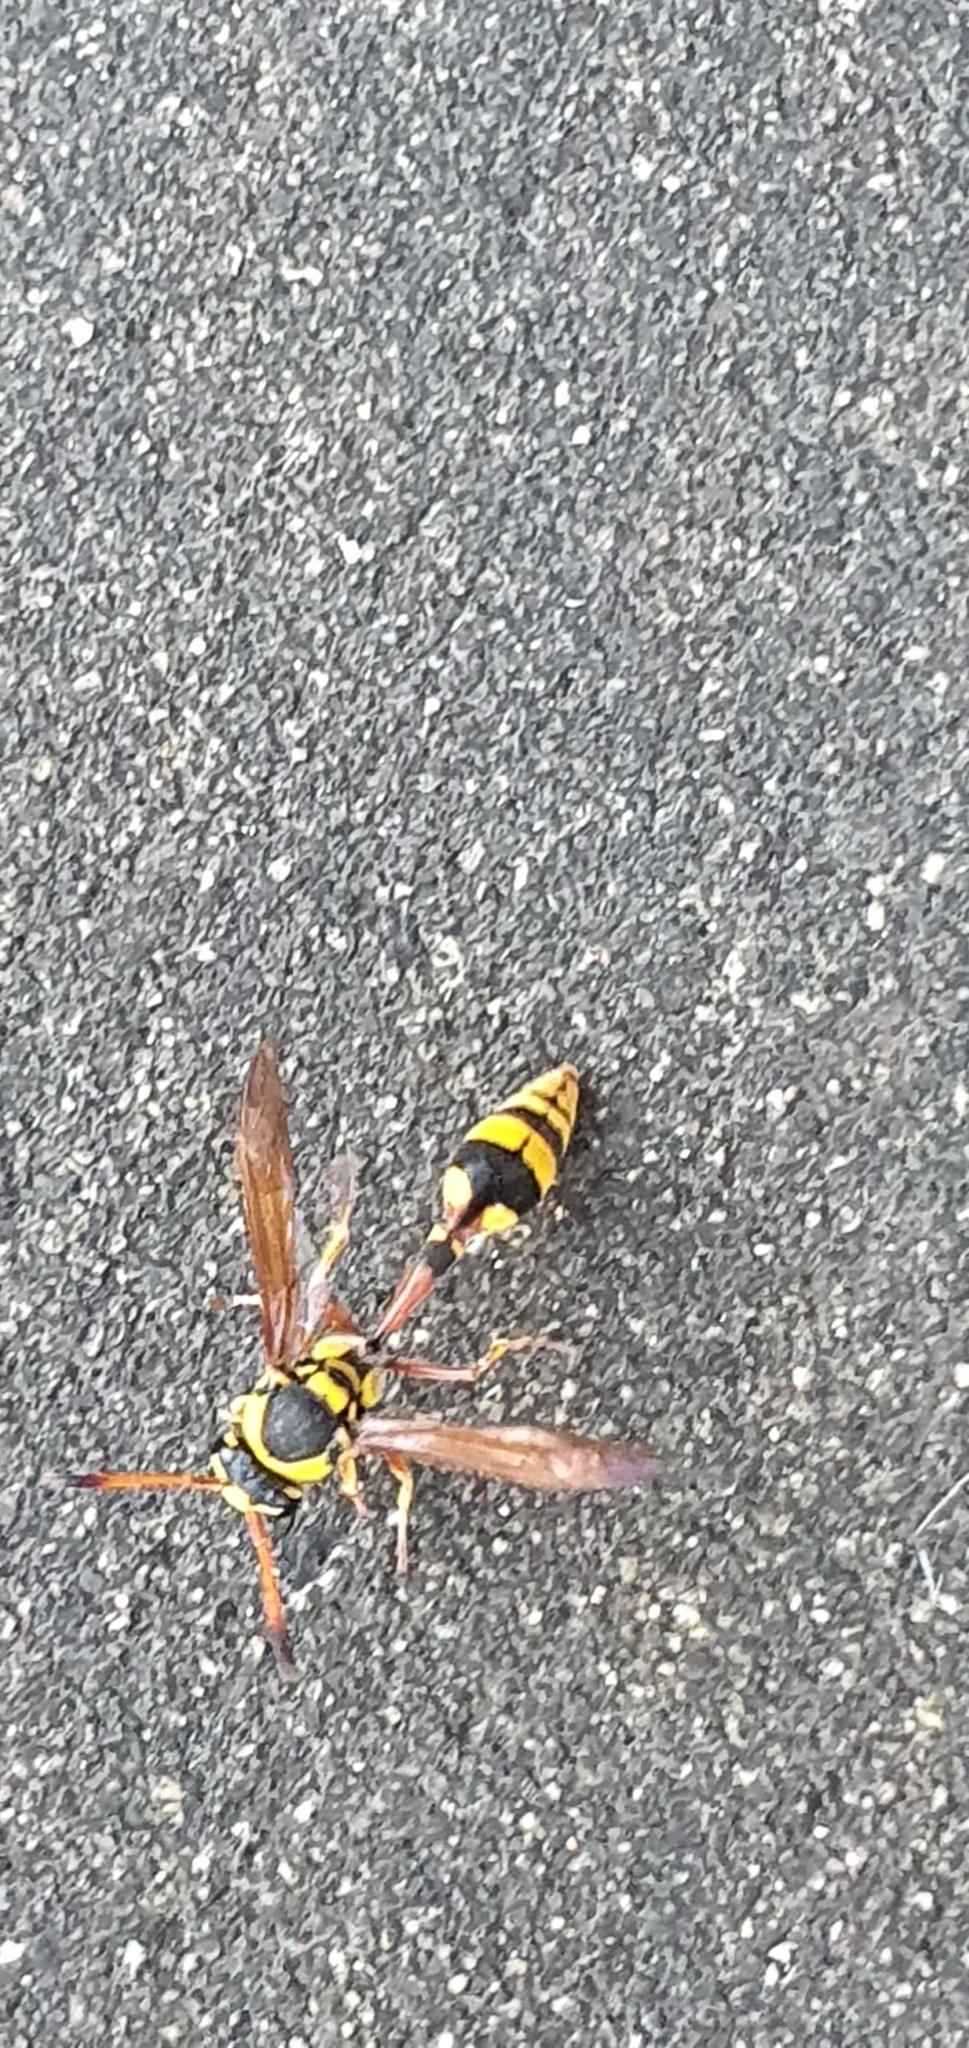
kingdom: Animalia
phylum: Arthropoda
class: Insecta
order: Hymenoptera
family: Eumenidae
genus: Delta
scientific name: Delta campaniforme
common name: Yellow and black potter wasp
